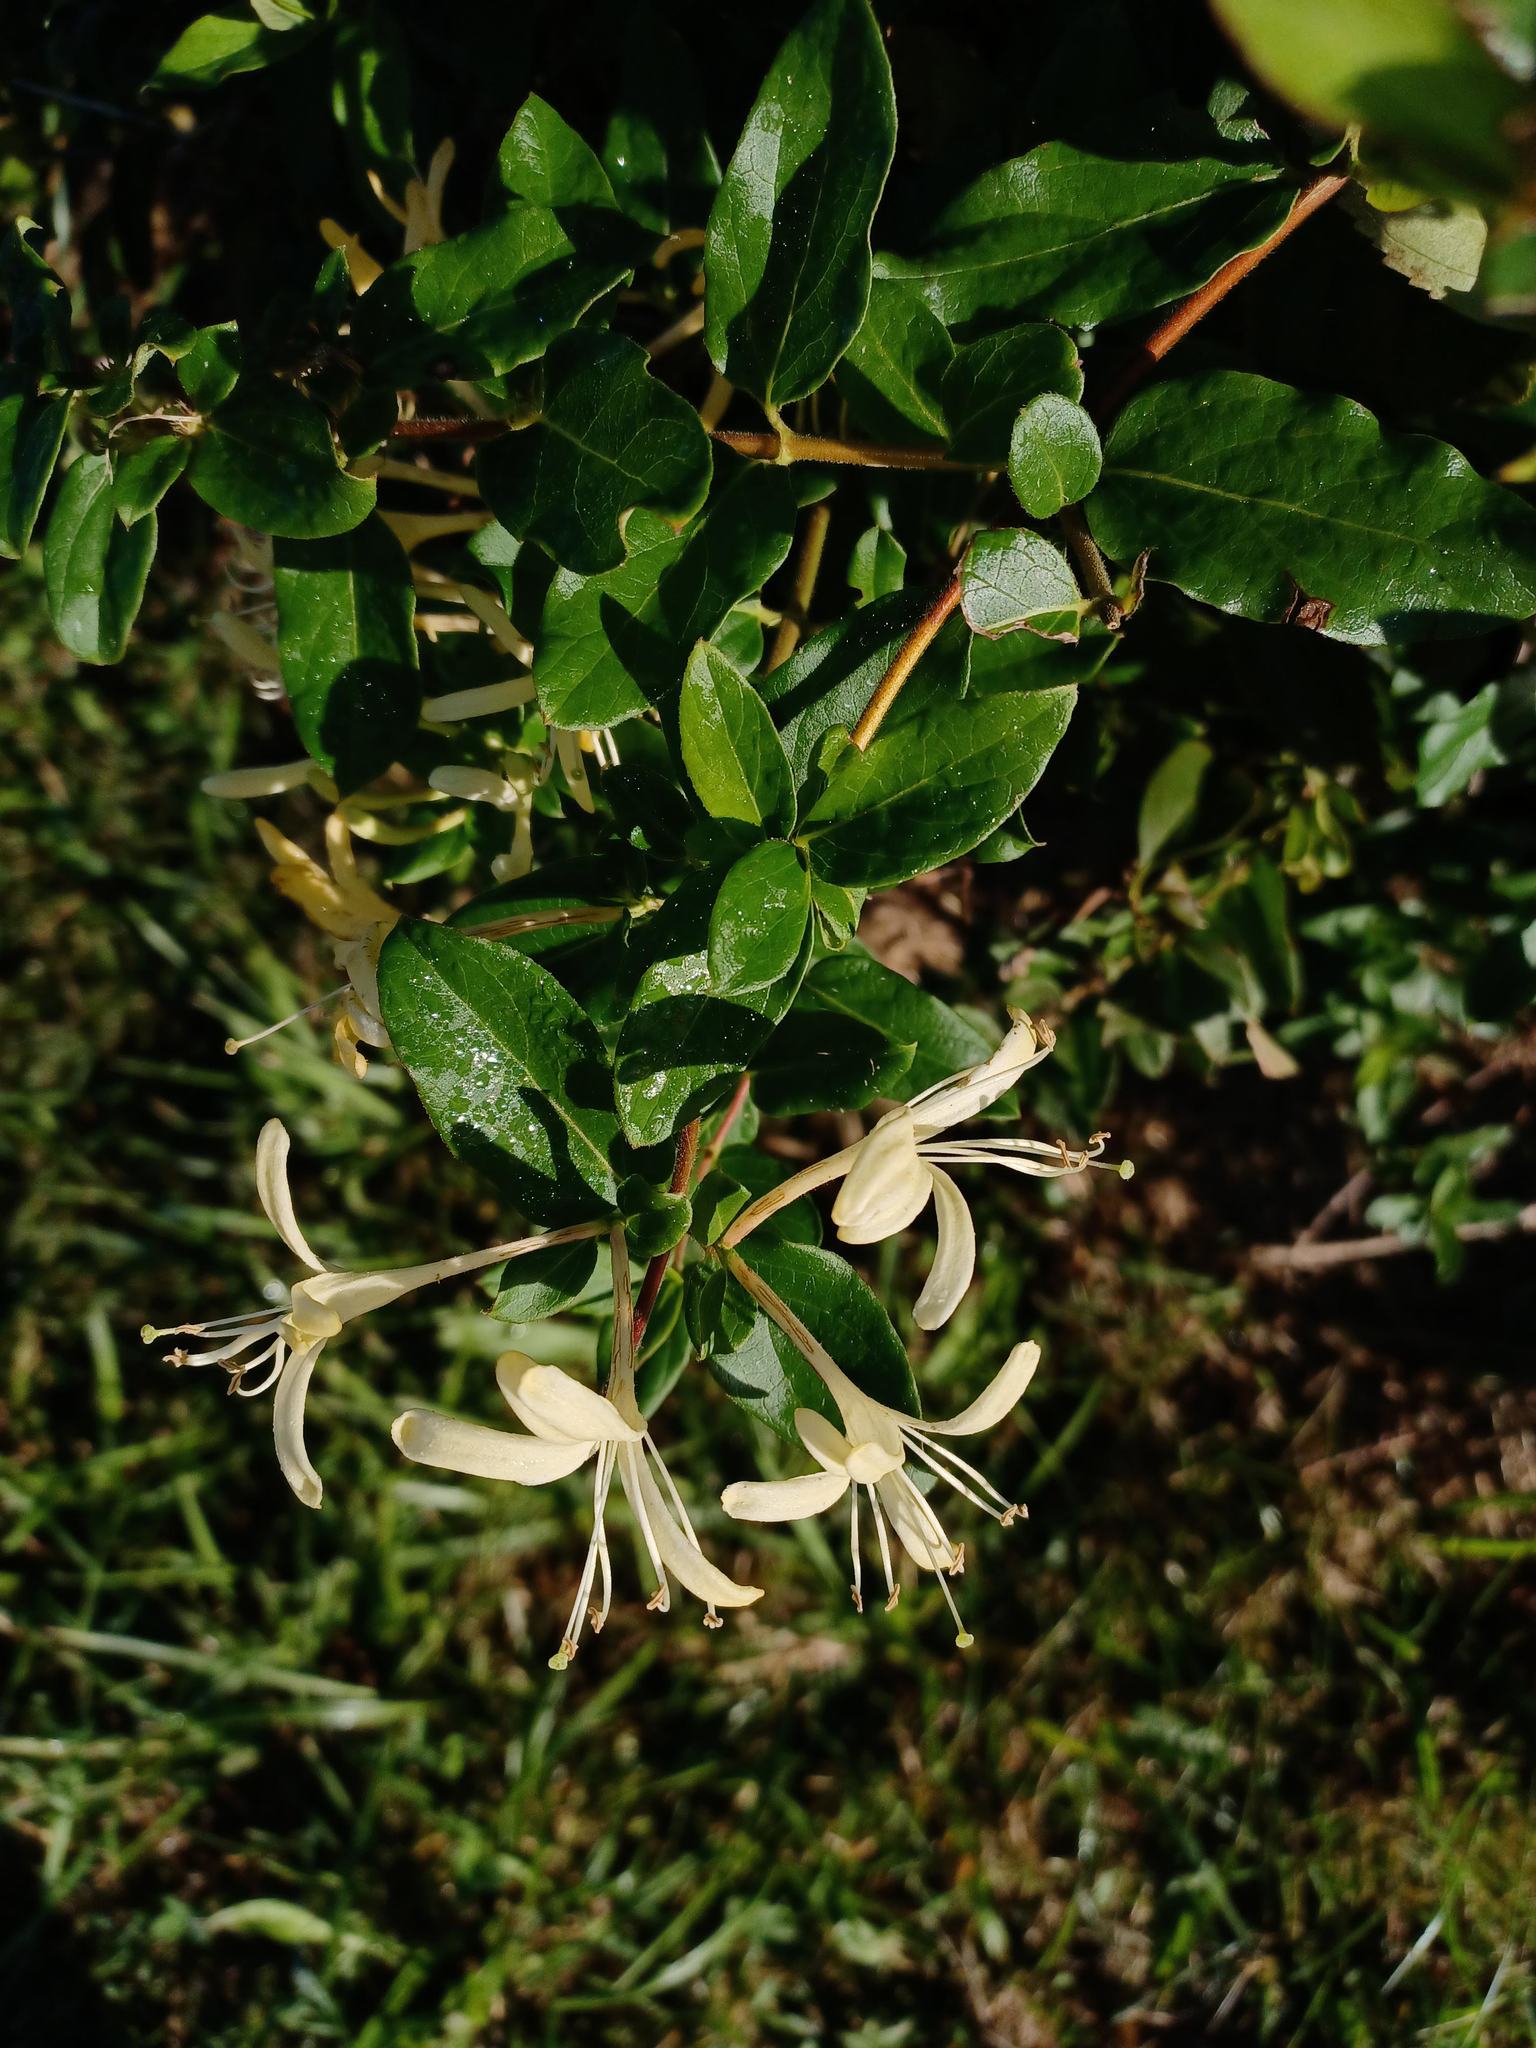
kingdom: Plantae
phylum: Tracheophyta
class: Magnoliopsida
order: Dipsacales
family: Caprifoliaceae
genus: Lonicera
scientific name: Lonicera japonica
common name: Japanese honeysuckle
